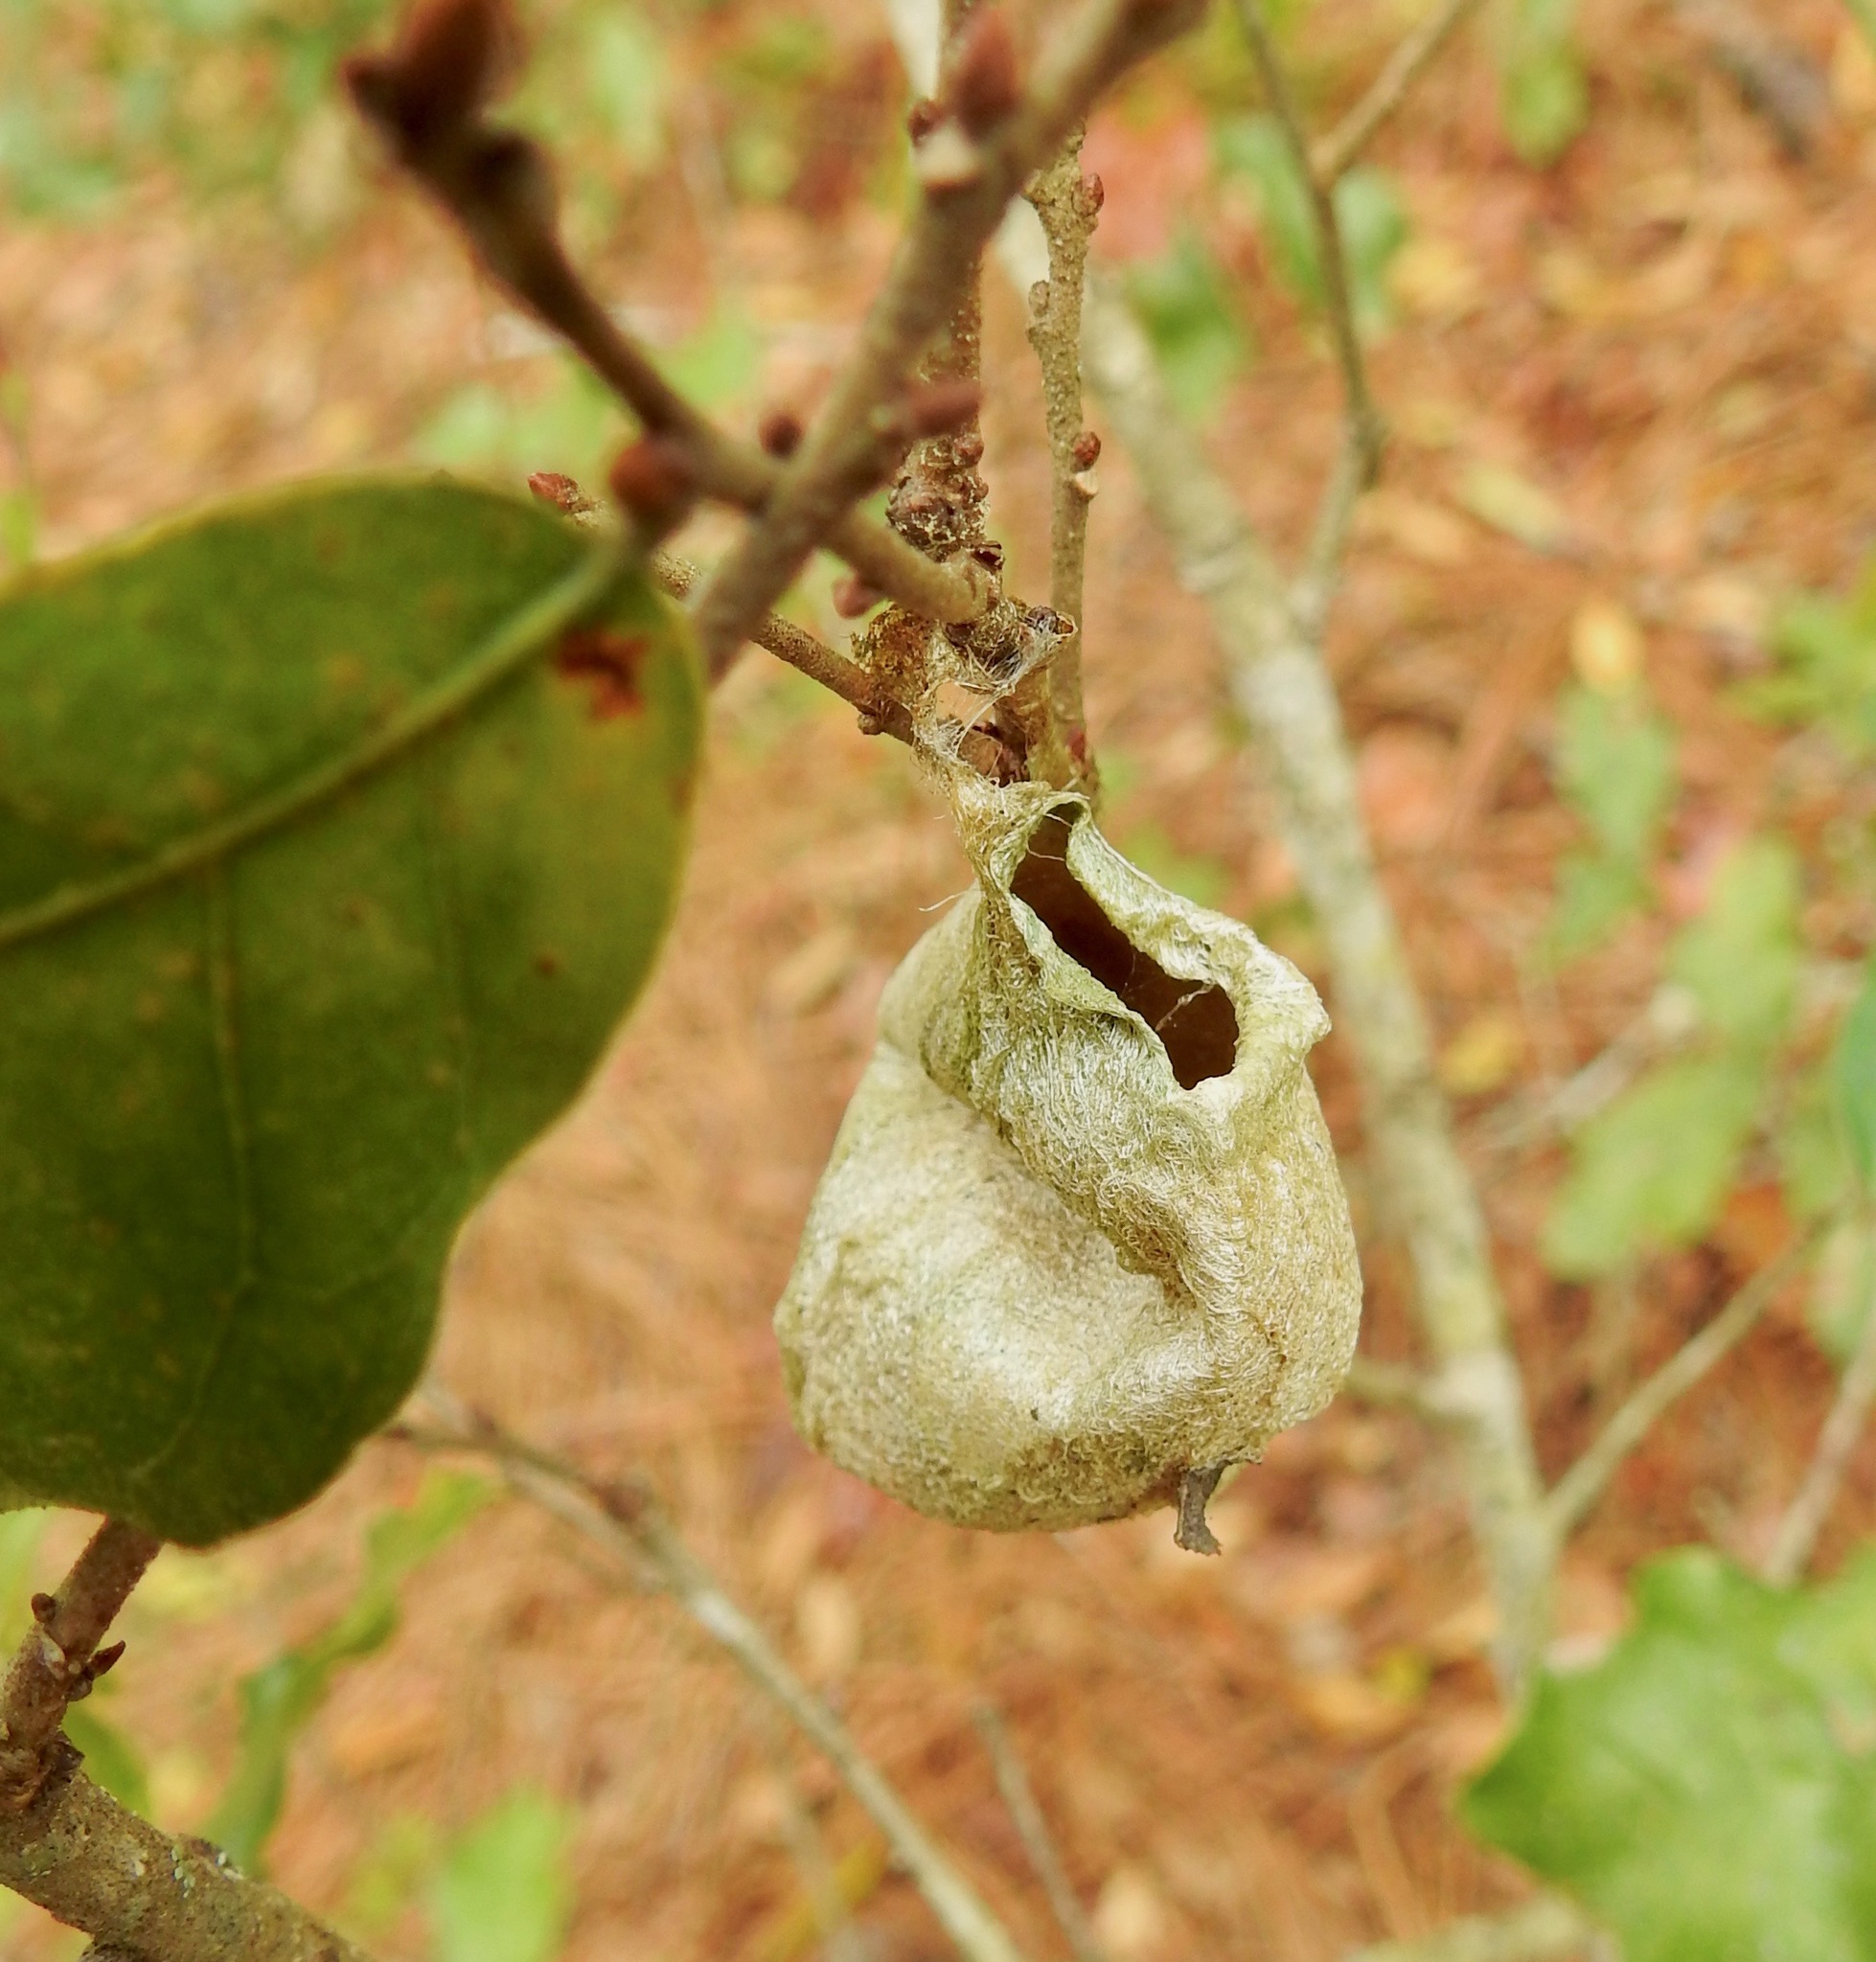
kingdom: Animalia
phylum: Arthropoda
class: Insecta
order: Lepidoptera
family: Saturniidae
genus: Antheraea
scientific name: Antheraea polyphemus
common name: Polyphemus moth
